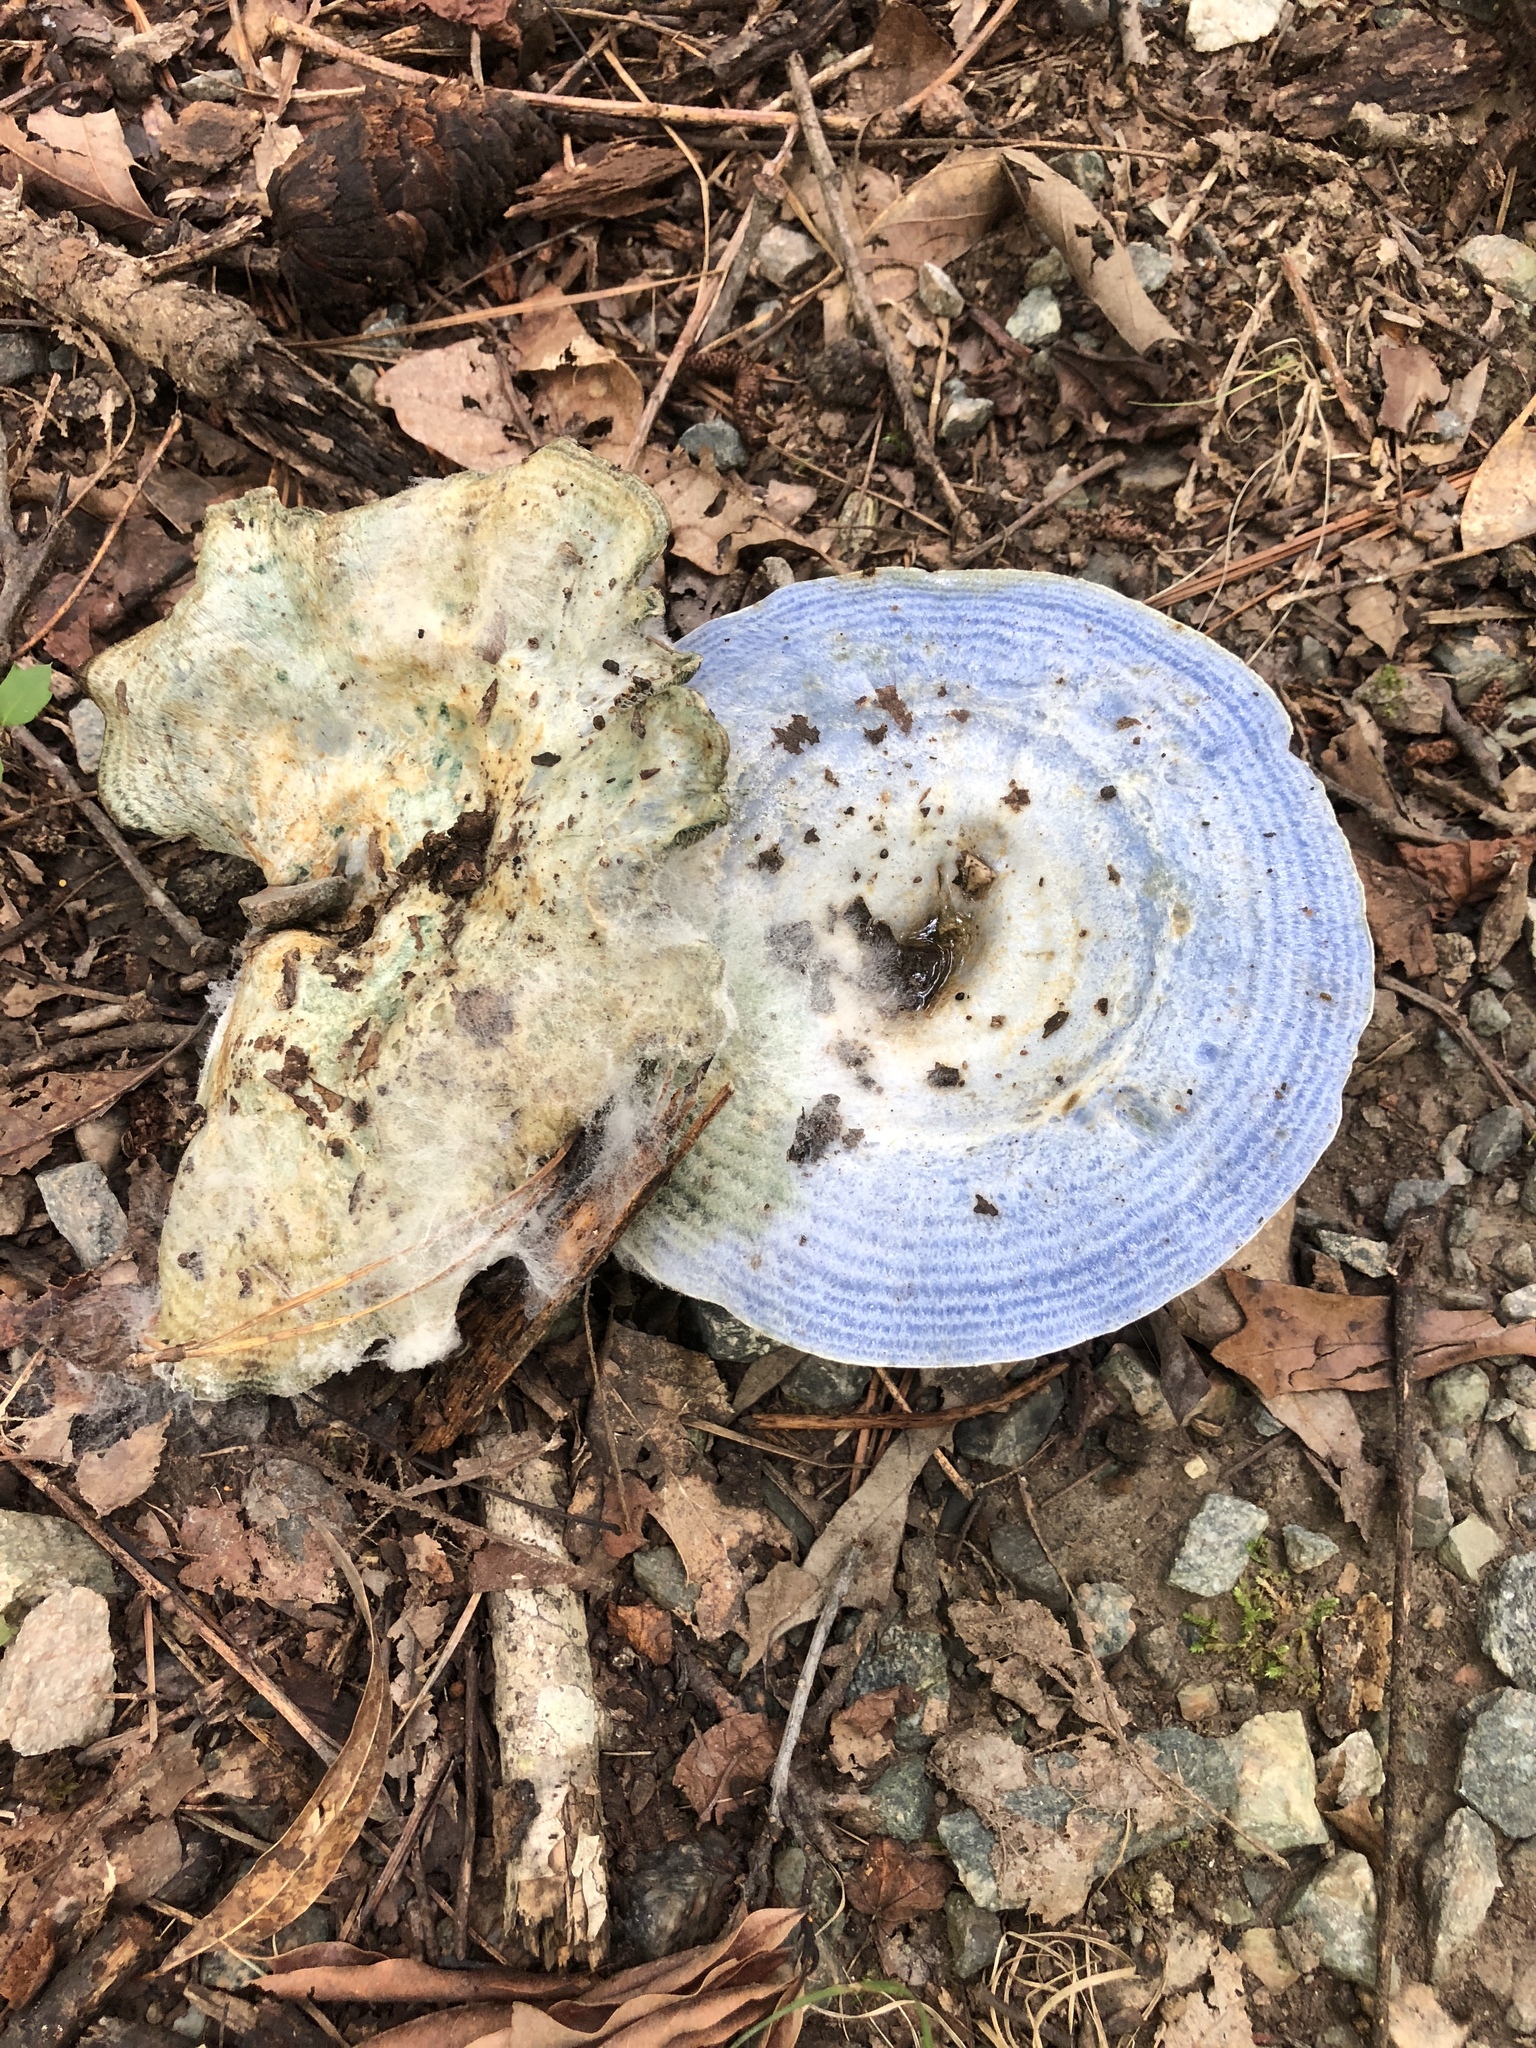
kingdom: Fungi
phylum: Basidiomycota
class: Agaricomycetes
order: Russulales
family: Russulaceae
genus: Lactarius
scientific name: Lactarius indigo
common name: Indigo milk cap
